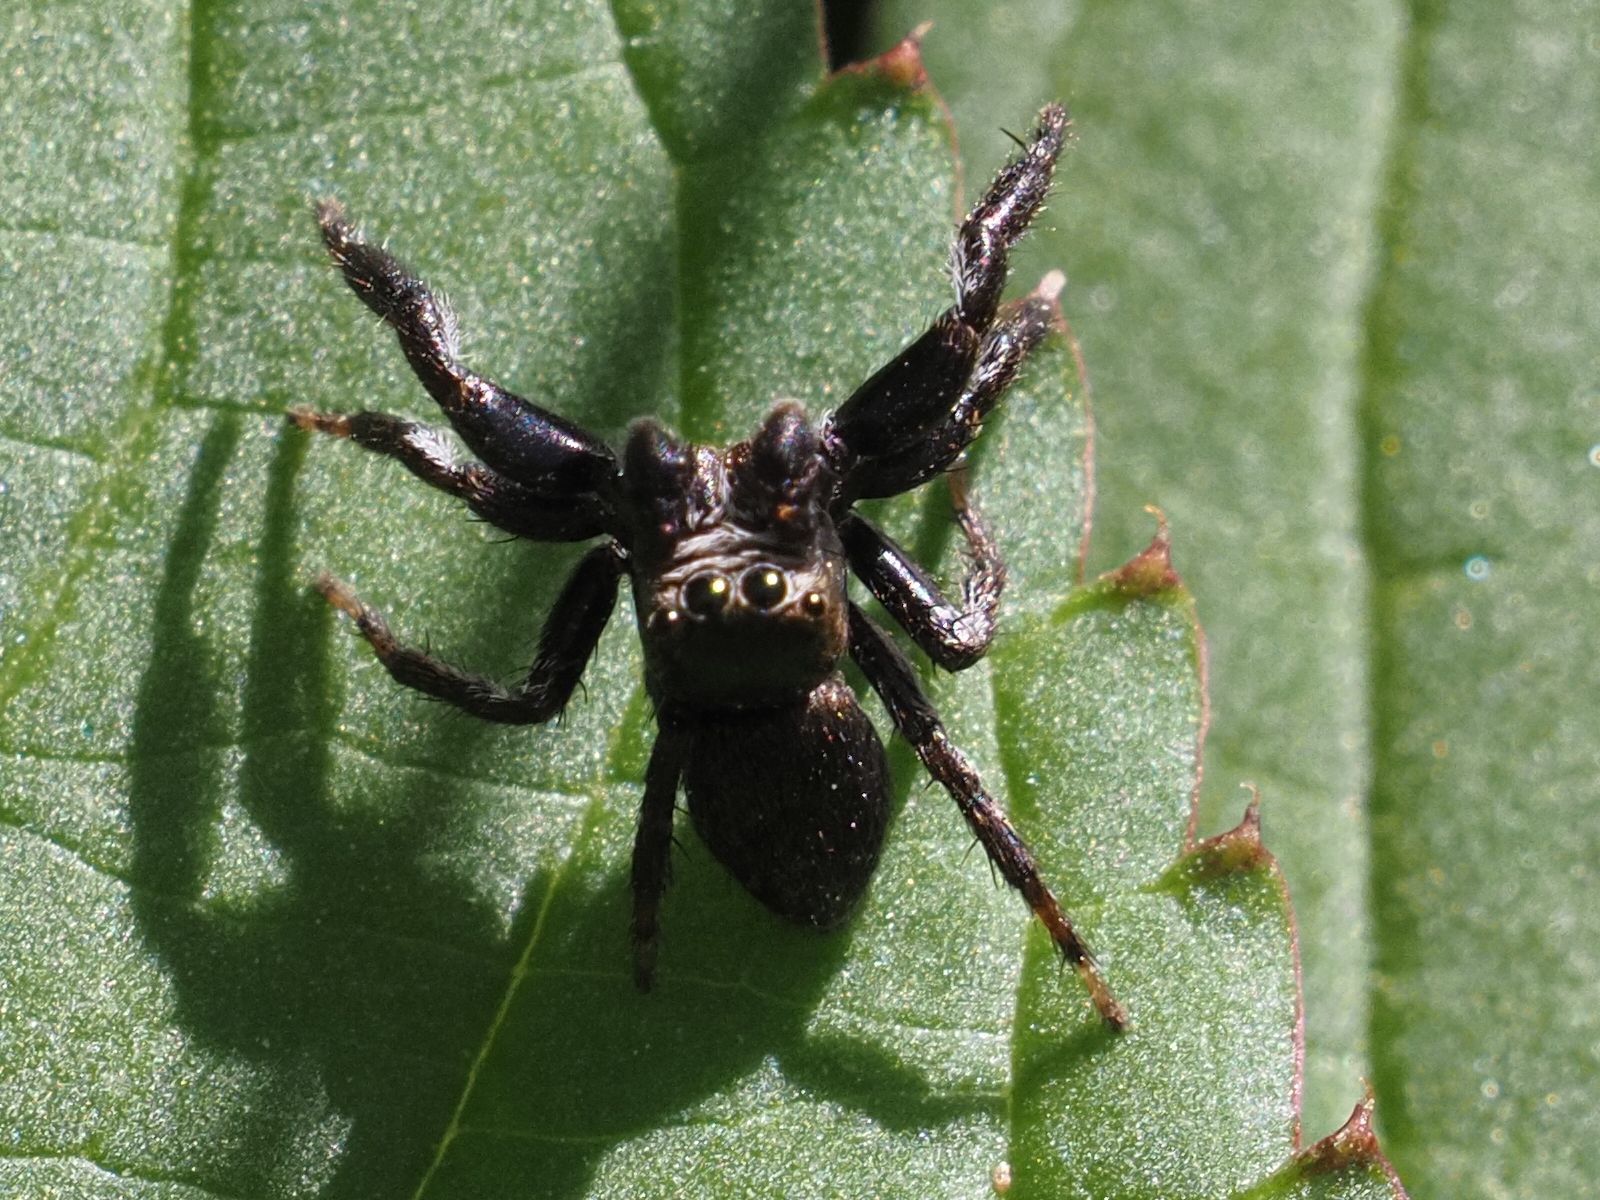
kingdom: Animalia
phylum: Arthropoda
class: Arachnida
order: Araneae
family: Salticidae
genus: Evarcha
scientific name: Evarcha arcuata
